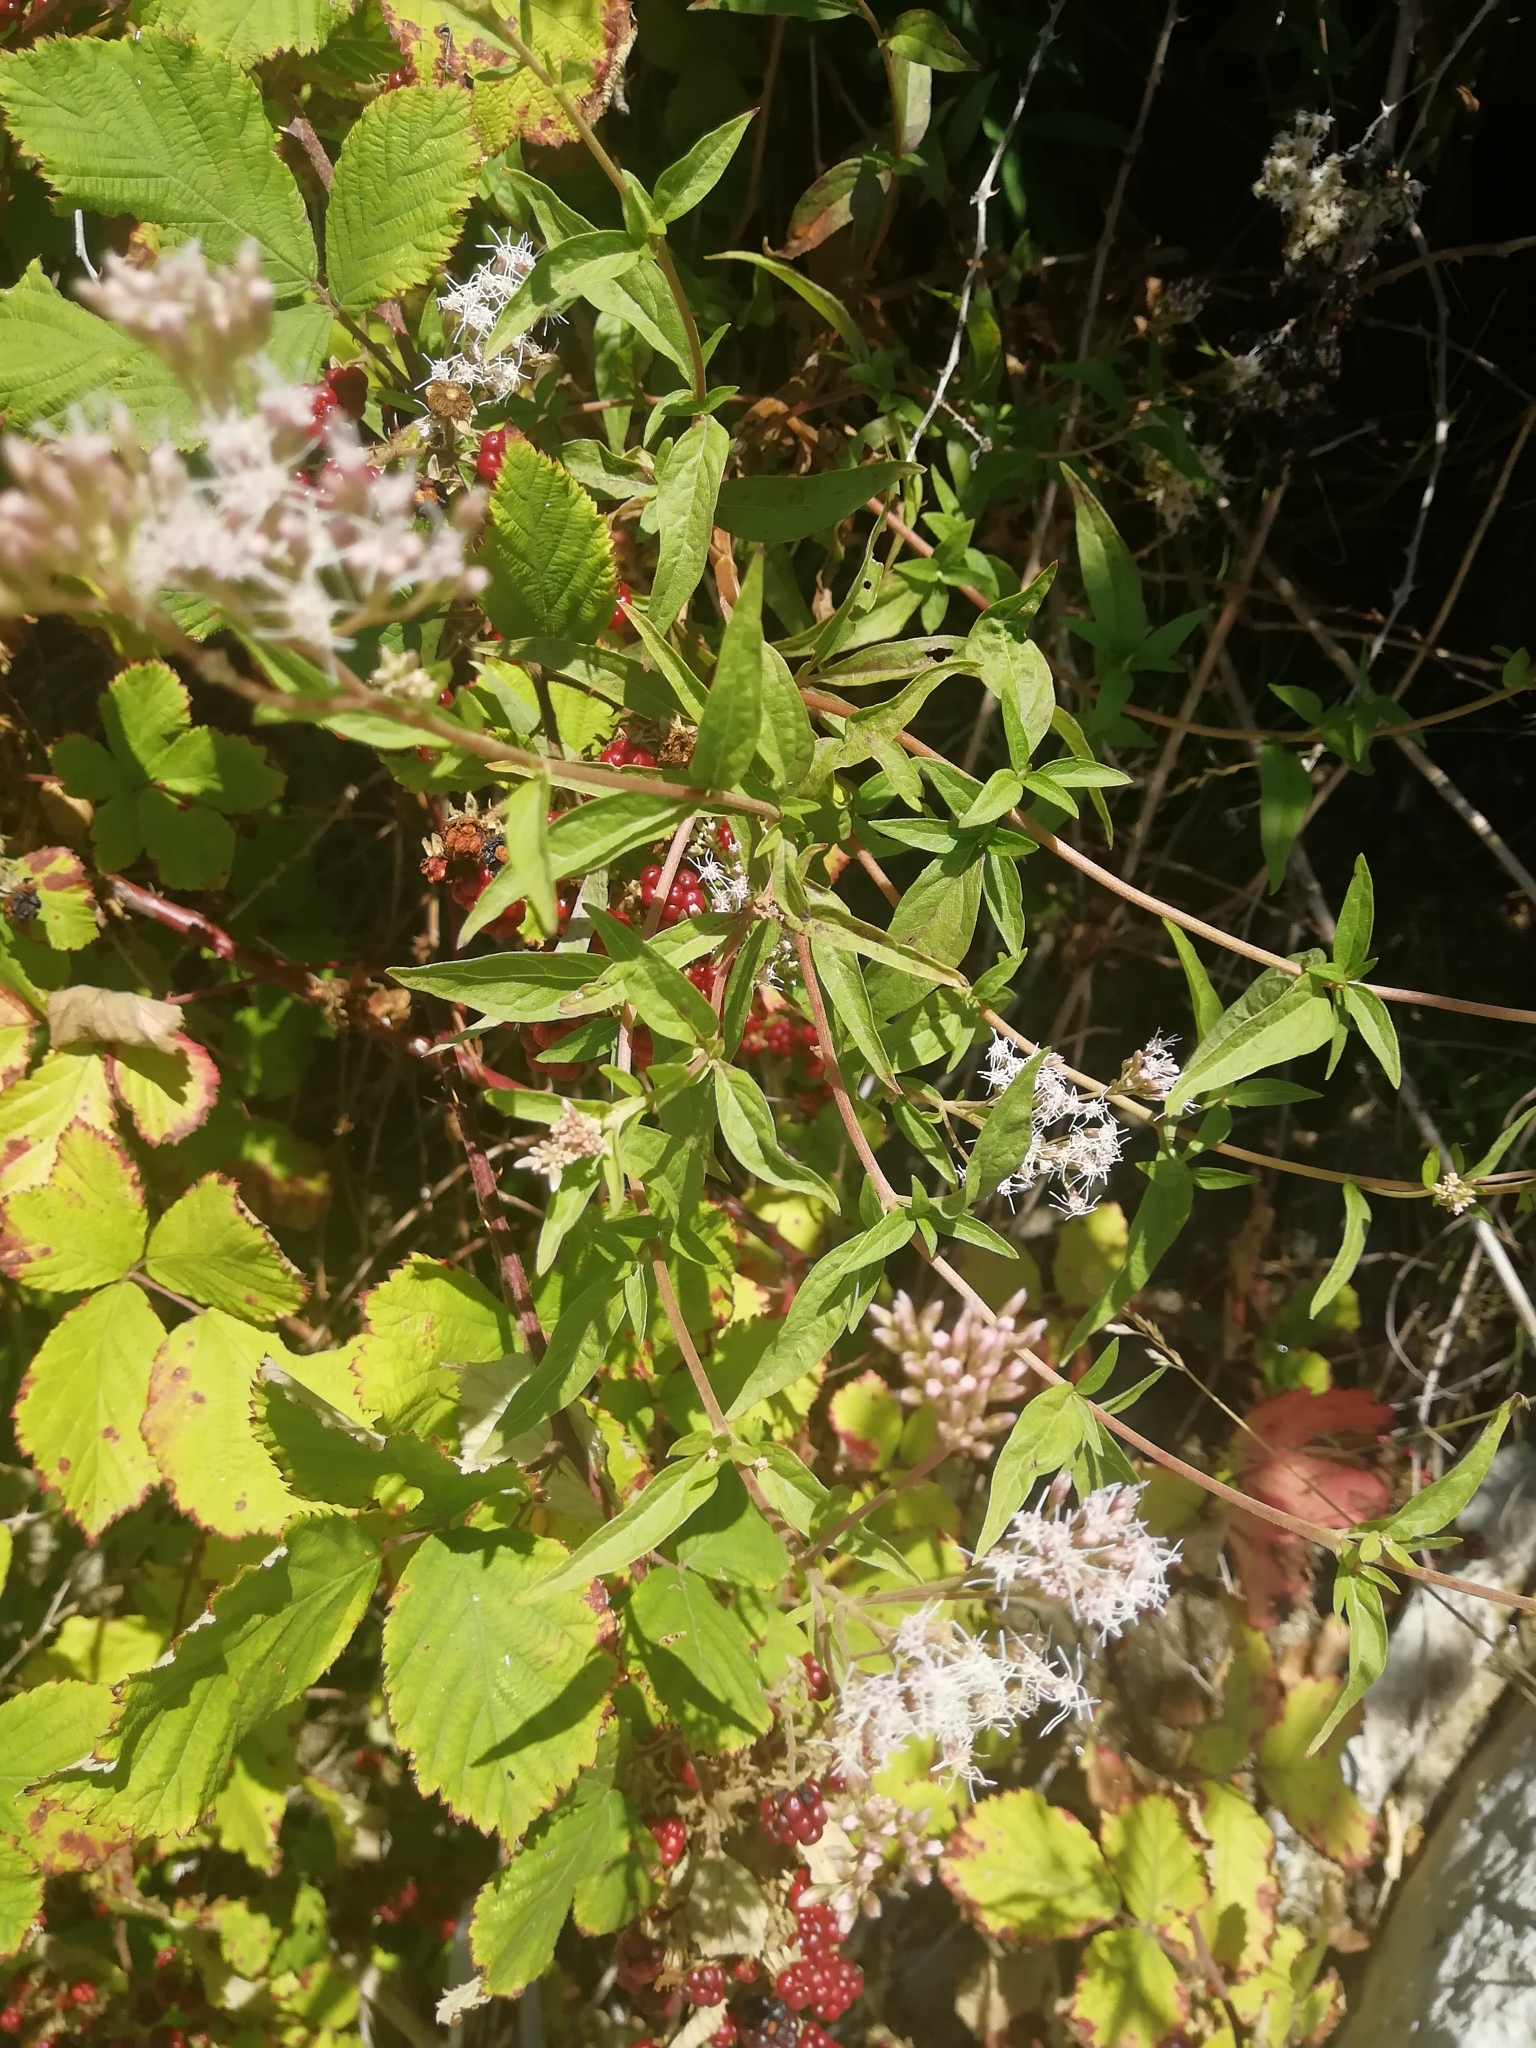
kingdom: Plantae
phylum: Tracheophyta
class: Magnoliopsida
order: Asterales
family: Asteraceae
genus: Eupatorium
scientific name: Eupatorium cannabinum
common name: Hemp-agrimony
